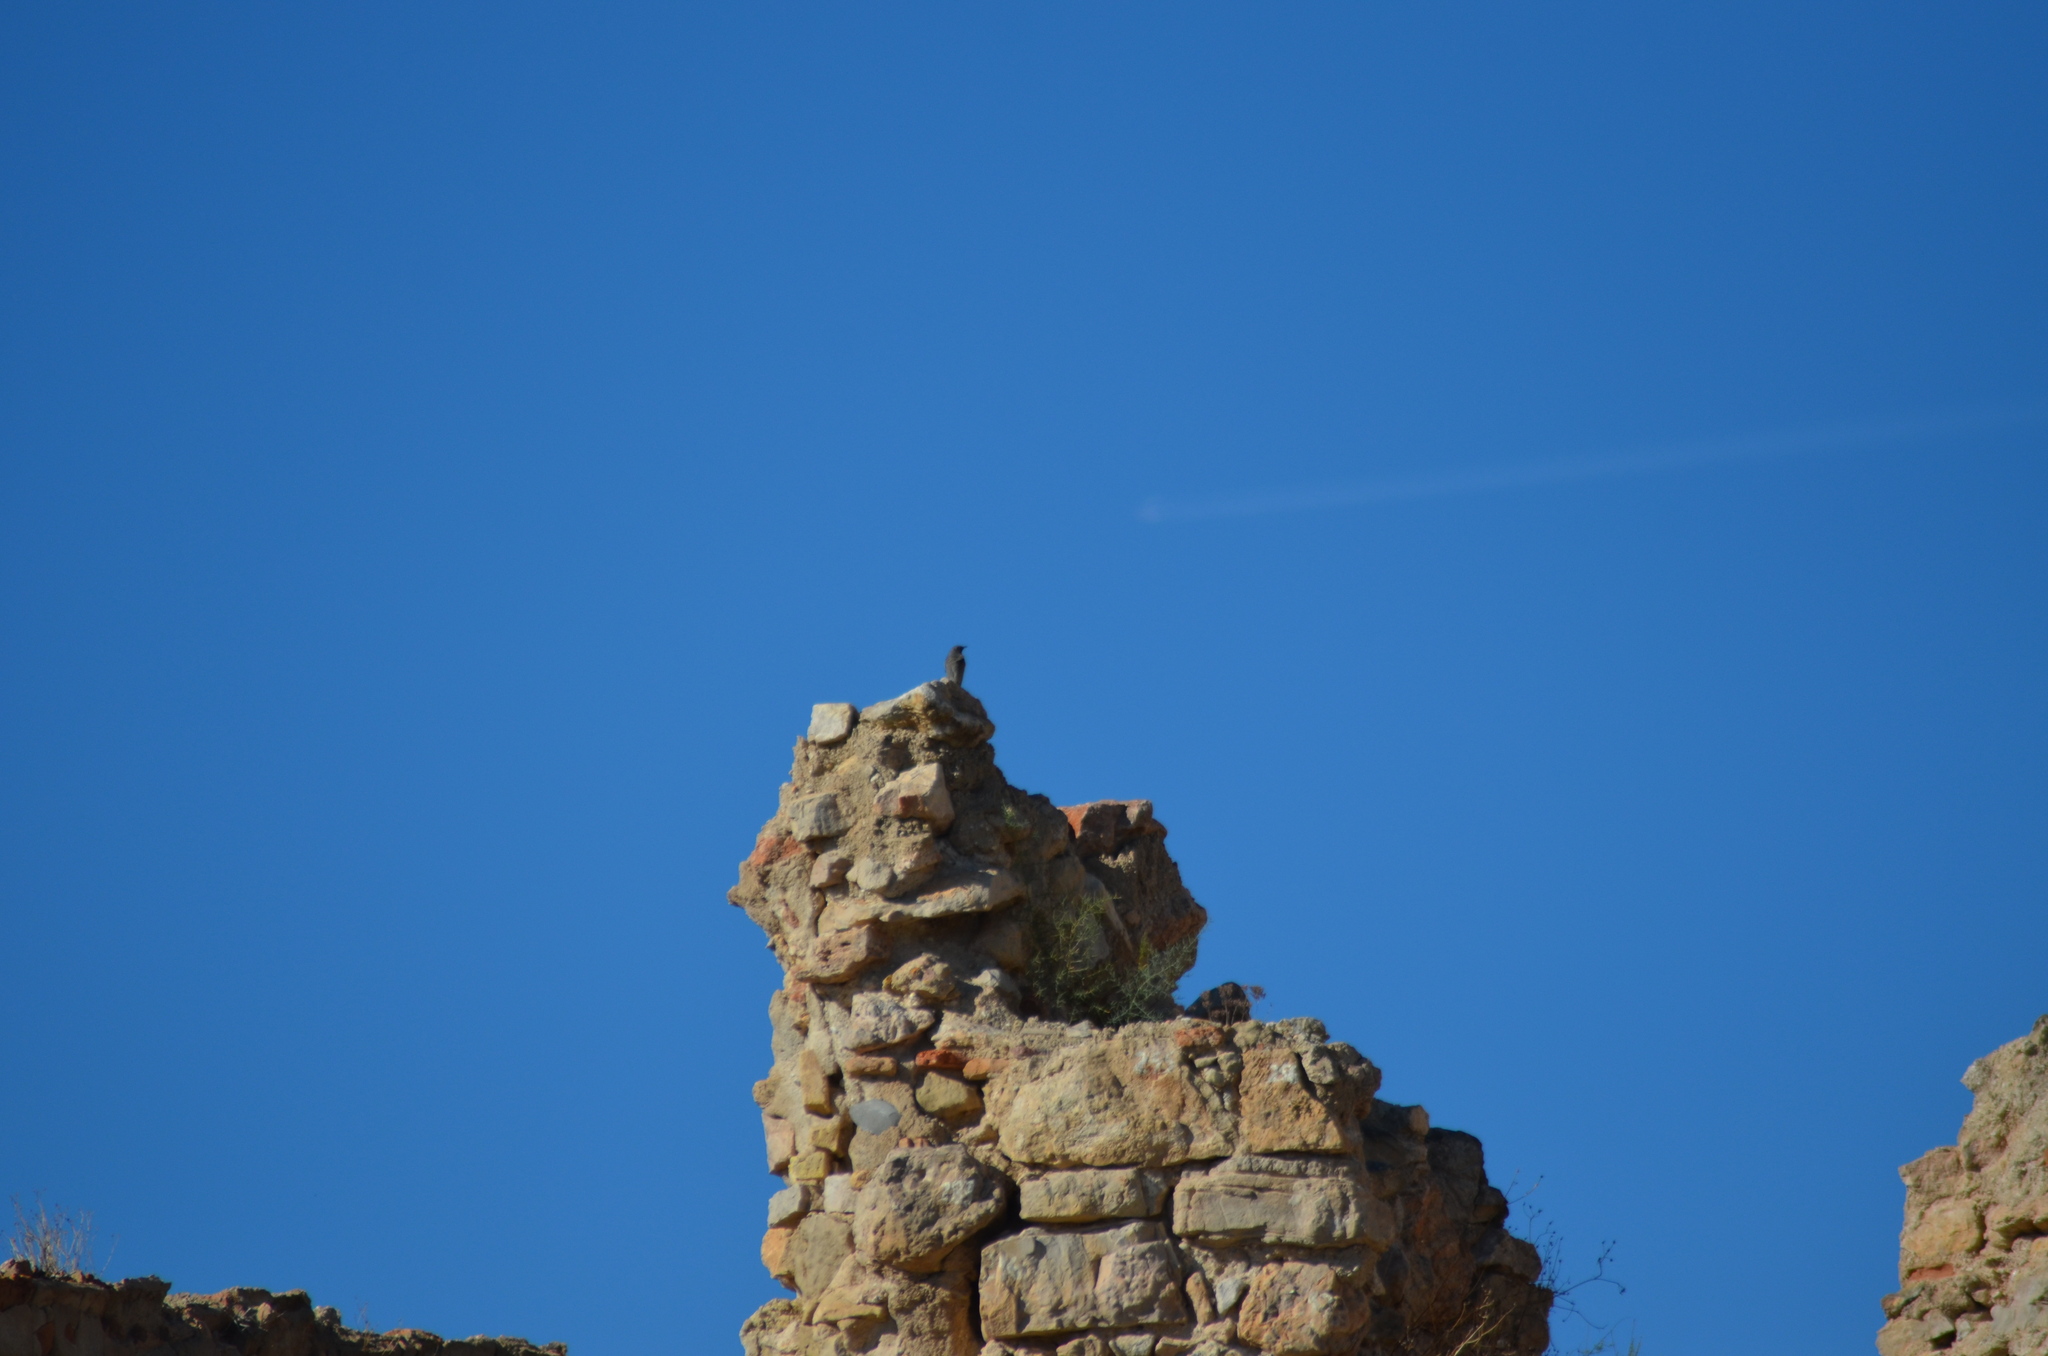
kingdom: Animalia
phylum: Chordata
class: Aves
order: Passeriformes
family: Muscicapidae
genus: Phoenicurus
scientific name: Phoenicurus ochruros
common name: Black redstart
